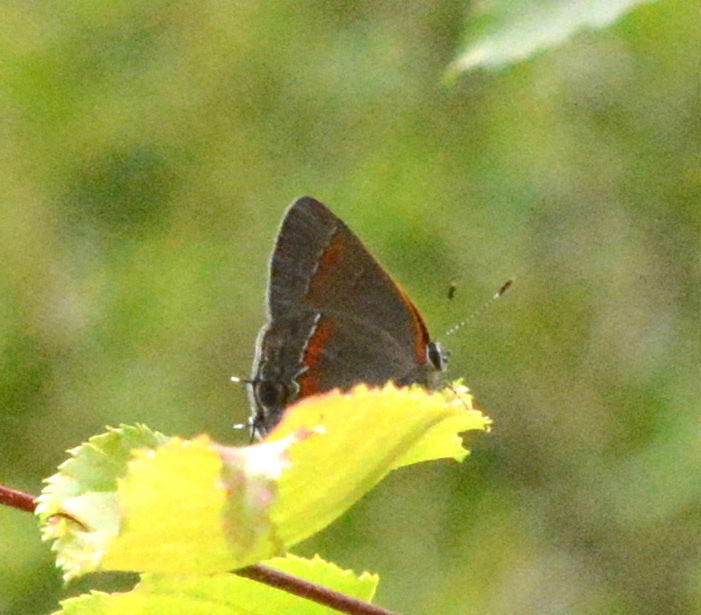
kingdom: Animalia
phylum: Arthropoda
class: Insecta
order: Lepidoptera
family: Lycaenidae
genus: Calycopis
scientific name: Calycopis cecrops
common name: Red-banded hairstreak
